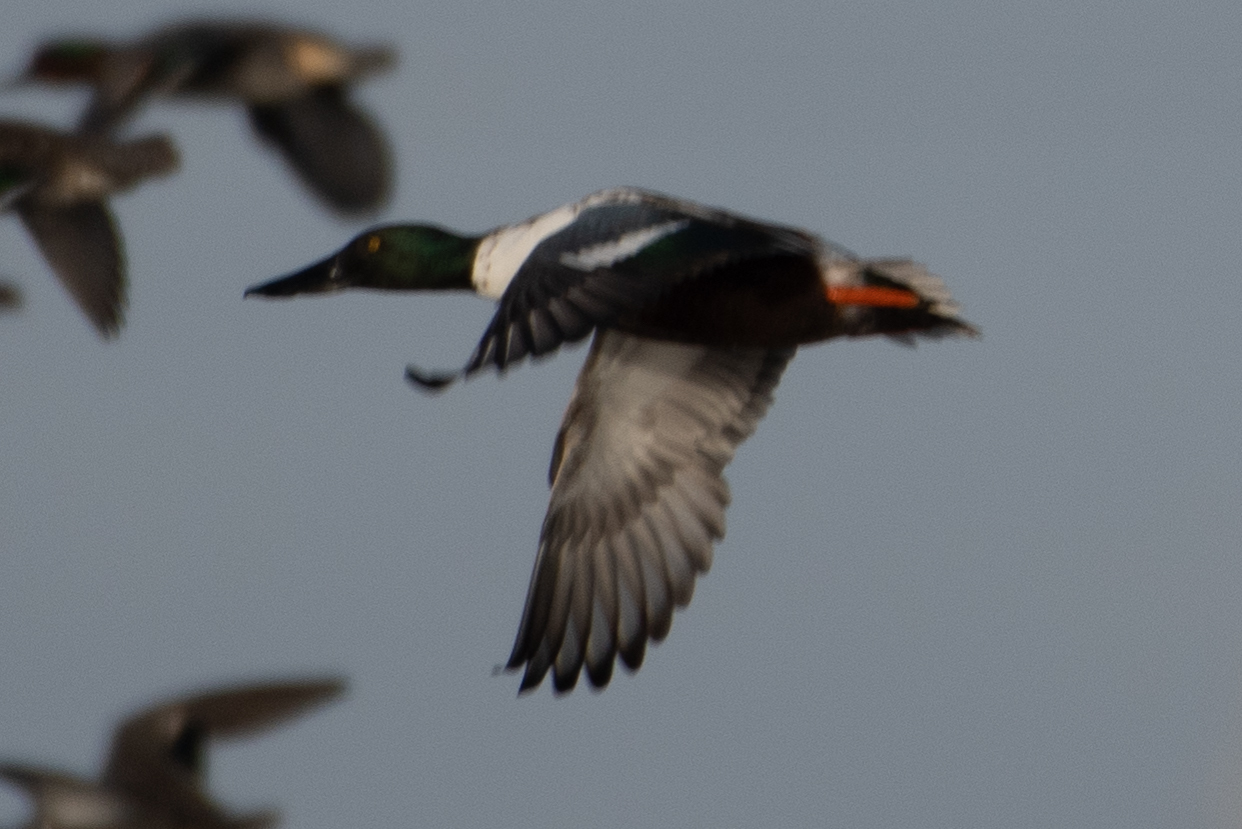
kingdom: Animalia
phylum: Chordata
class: Aves
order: Anseriformes
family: Anatidae
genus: Spatula
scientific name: Spatula clypeata
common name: Northern shoveler
